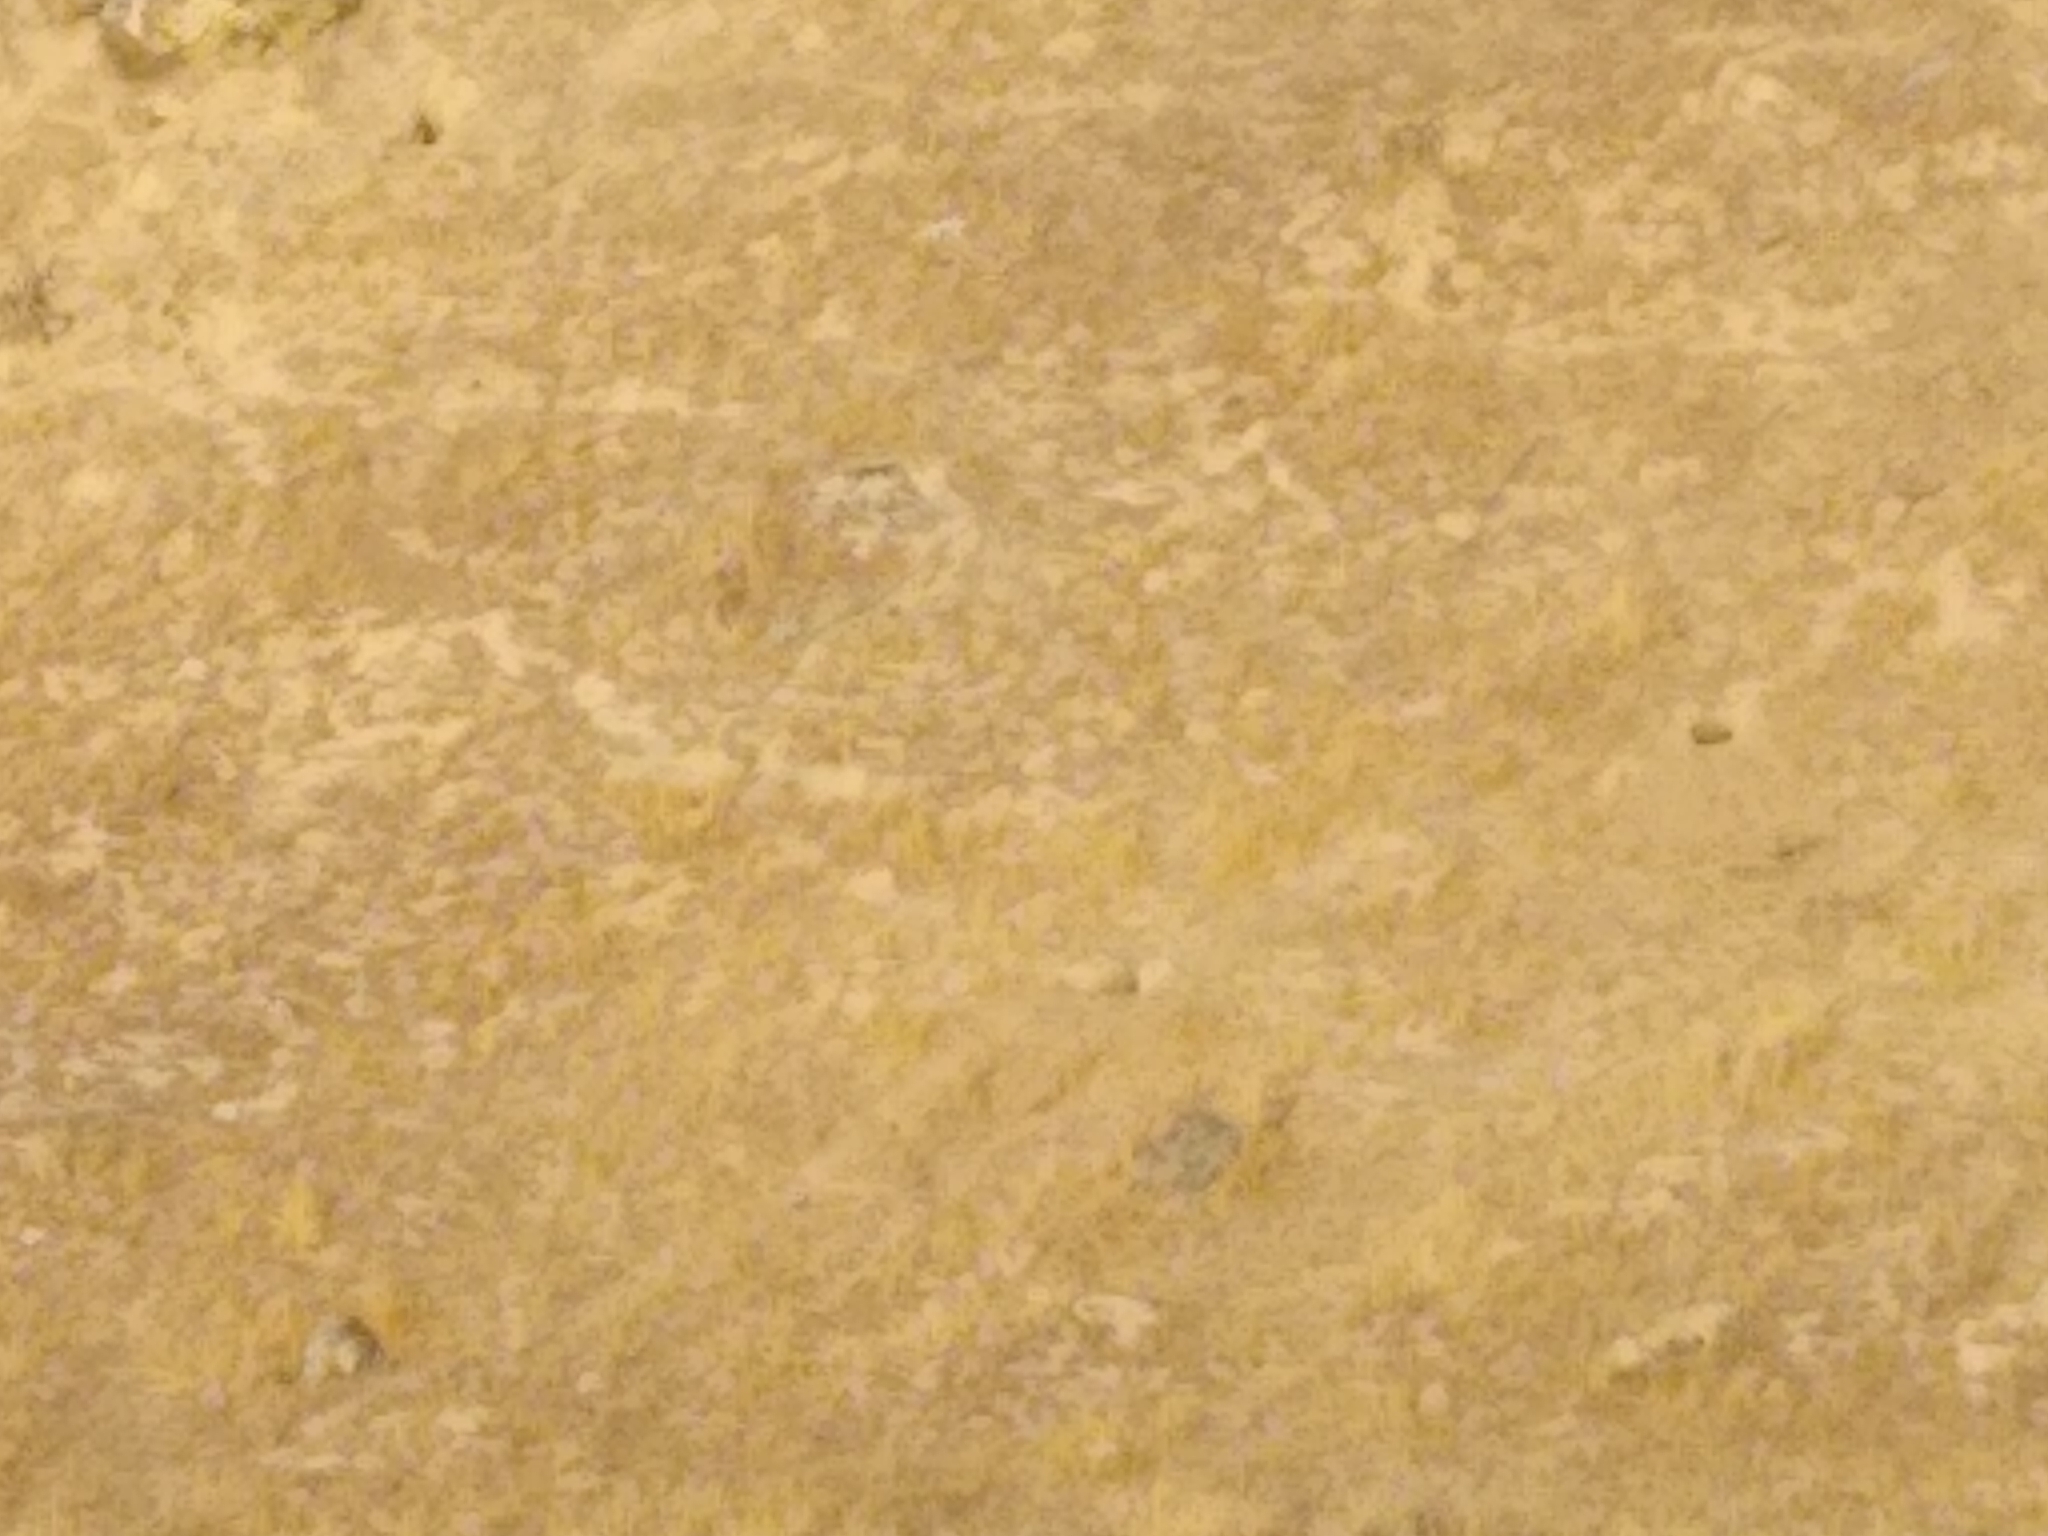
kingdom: Animalia
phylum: Chordata
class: Mammalia
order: Rodentia
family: Sciuridae
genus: Otospermophilus
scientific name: Otospermophilus beecheyi
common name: California ground squirrel
